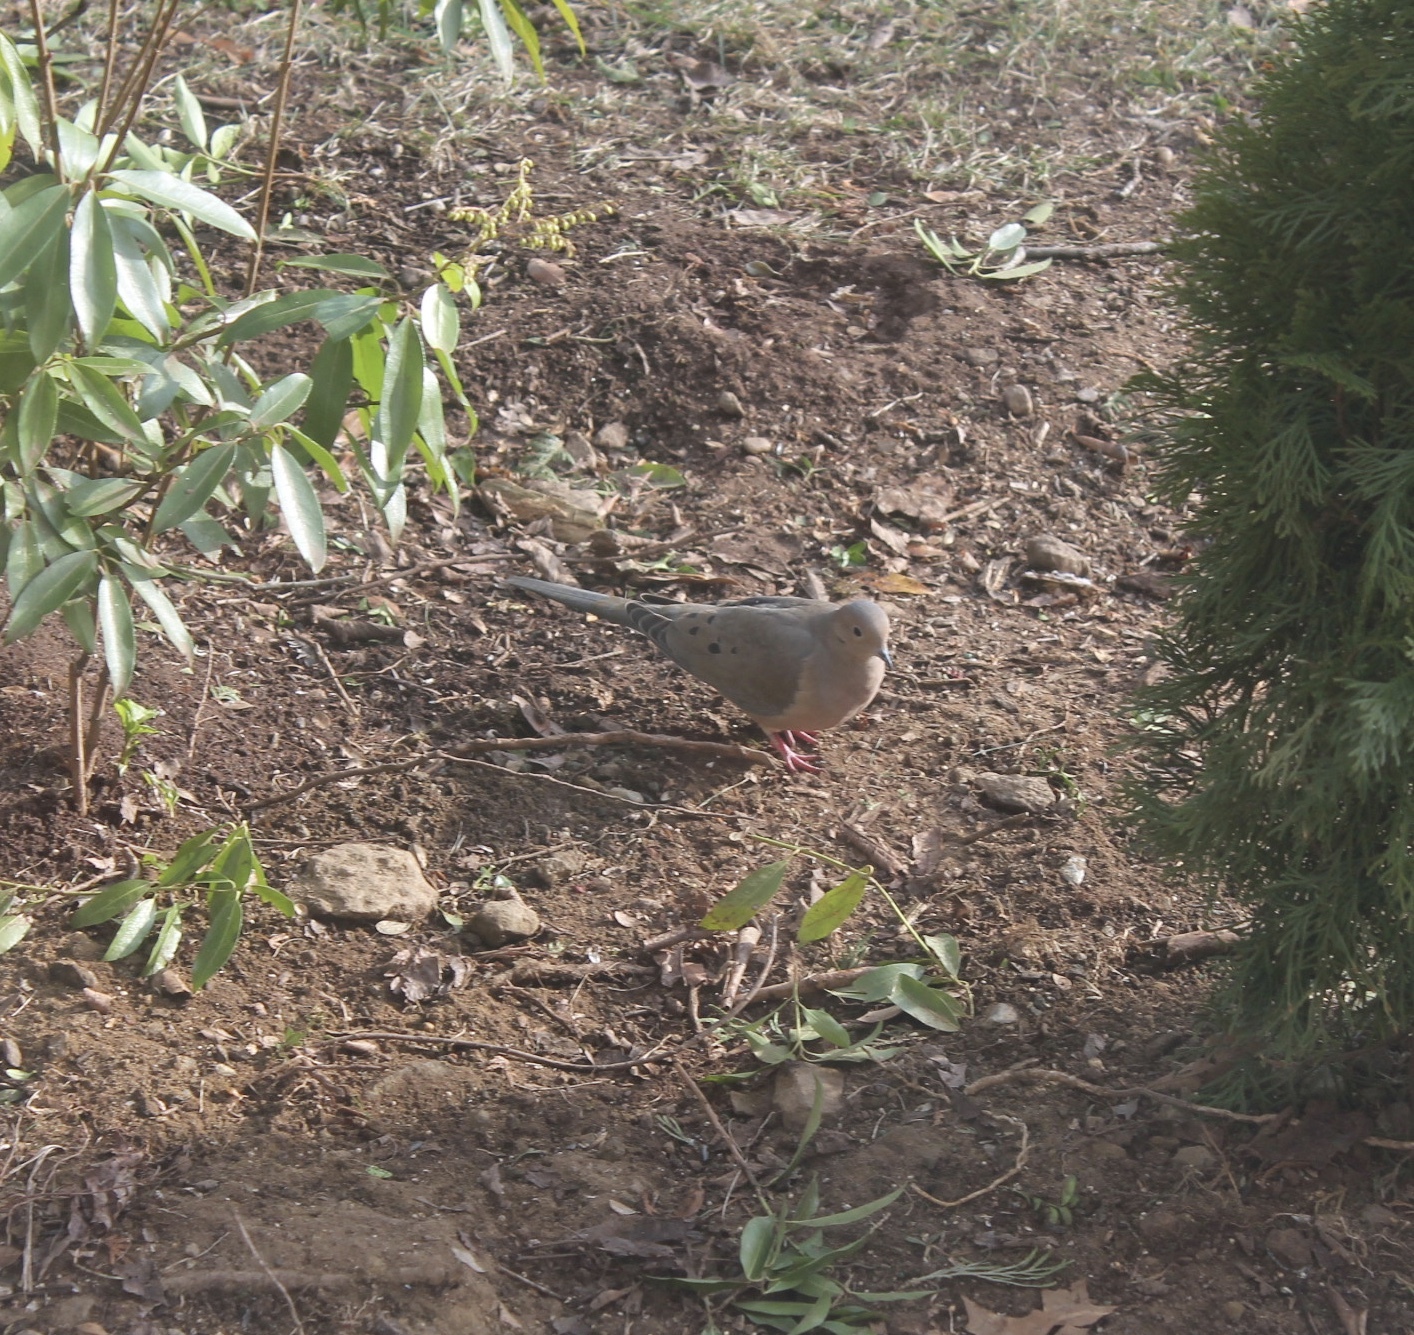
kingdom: Animalia
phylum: Chordata
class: Aves
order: Columbiformes
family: Columbidae
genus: Zenaida
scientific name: Zenaida macroura
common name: Mourning dove
